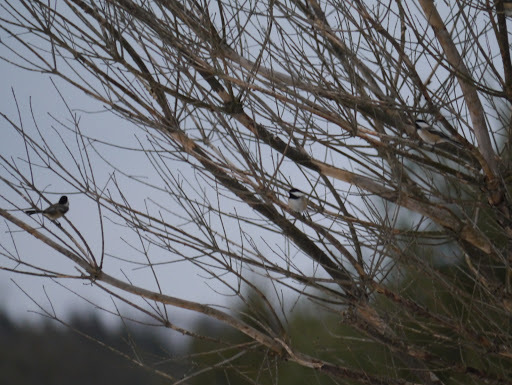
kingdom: Animalia
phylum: Chordata
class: Aves
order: Passeriformes
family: Paridae
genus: Poecile
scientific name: Poecile atricapillus
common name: Black-capped chickadee
